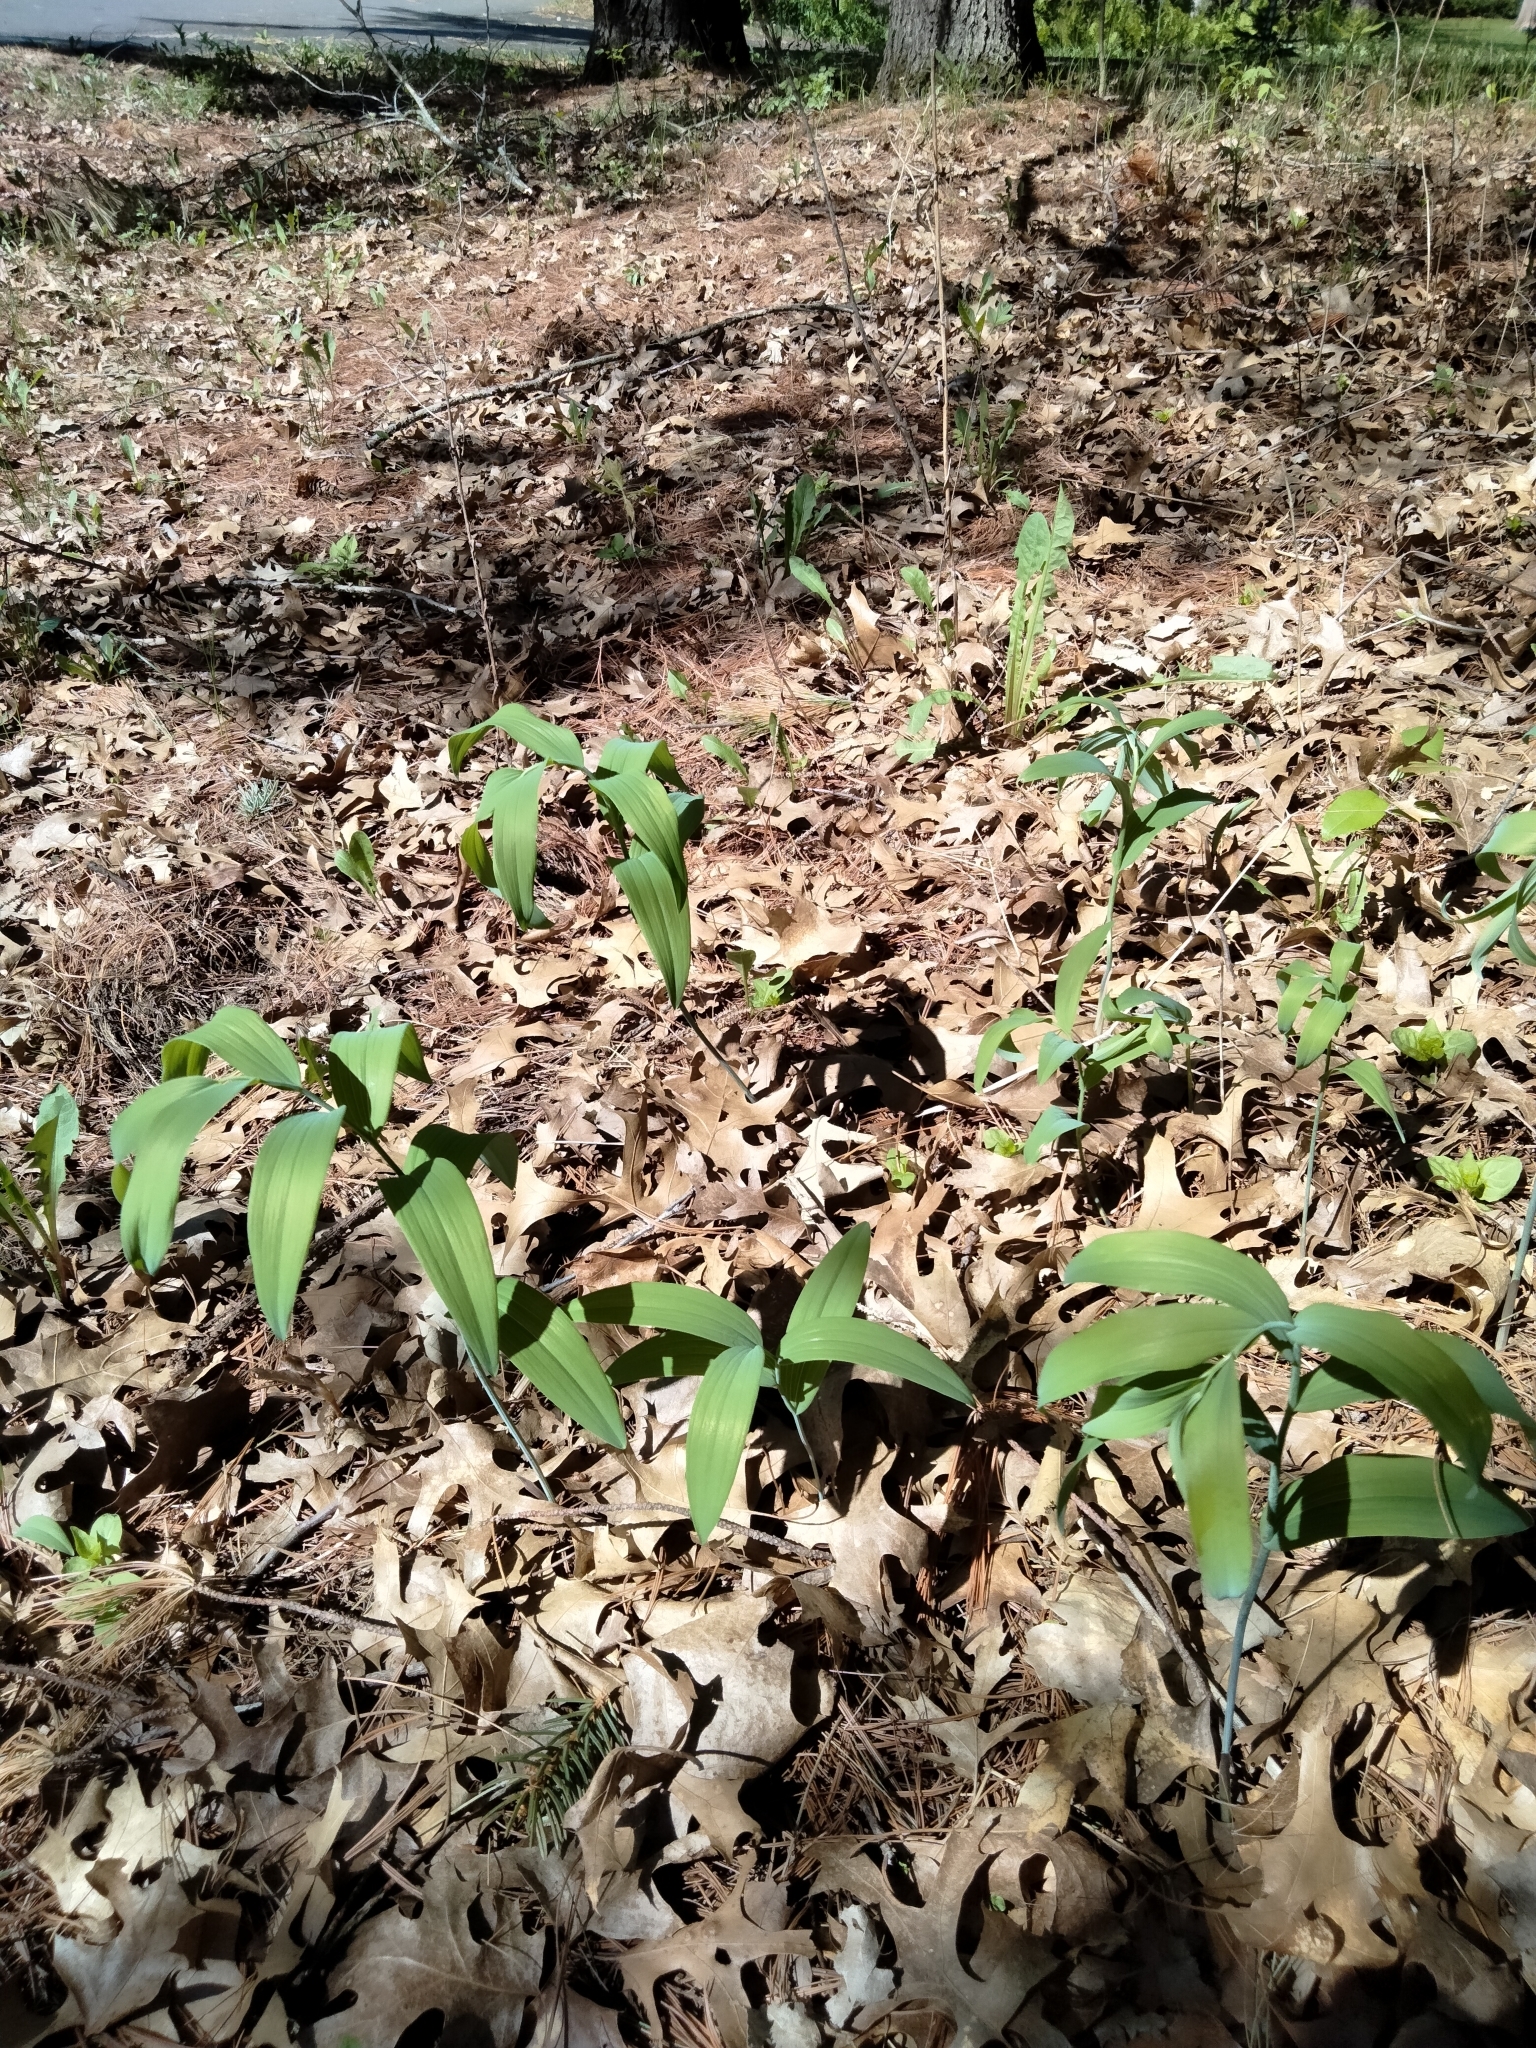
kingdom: Plantae
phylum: Tracheophyta
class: Liliopsida
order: Asparagales
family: Asparagaceae
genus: Polygonatum
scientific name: Polygonatum biflorum
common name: American solomon's-seal
